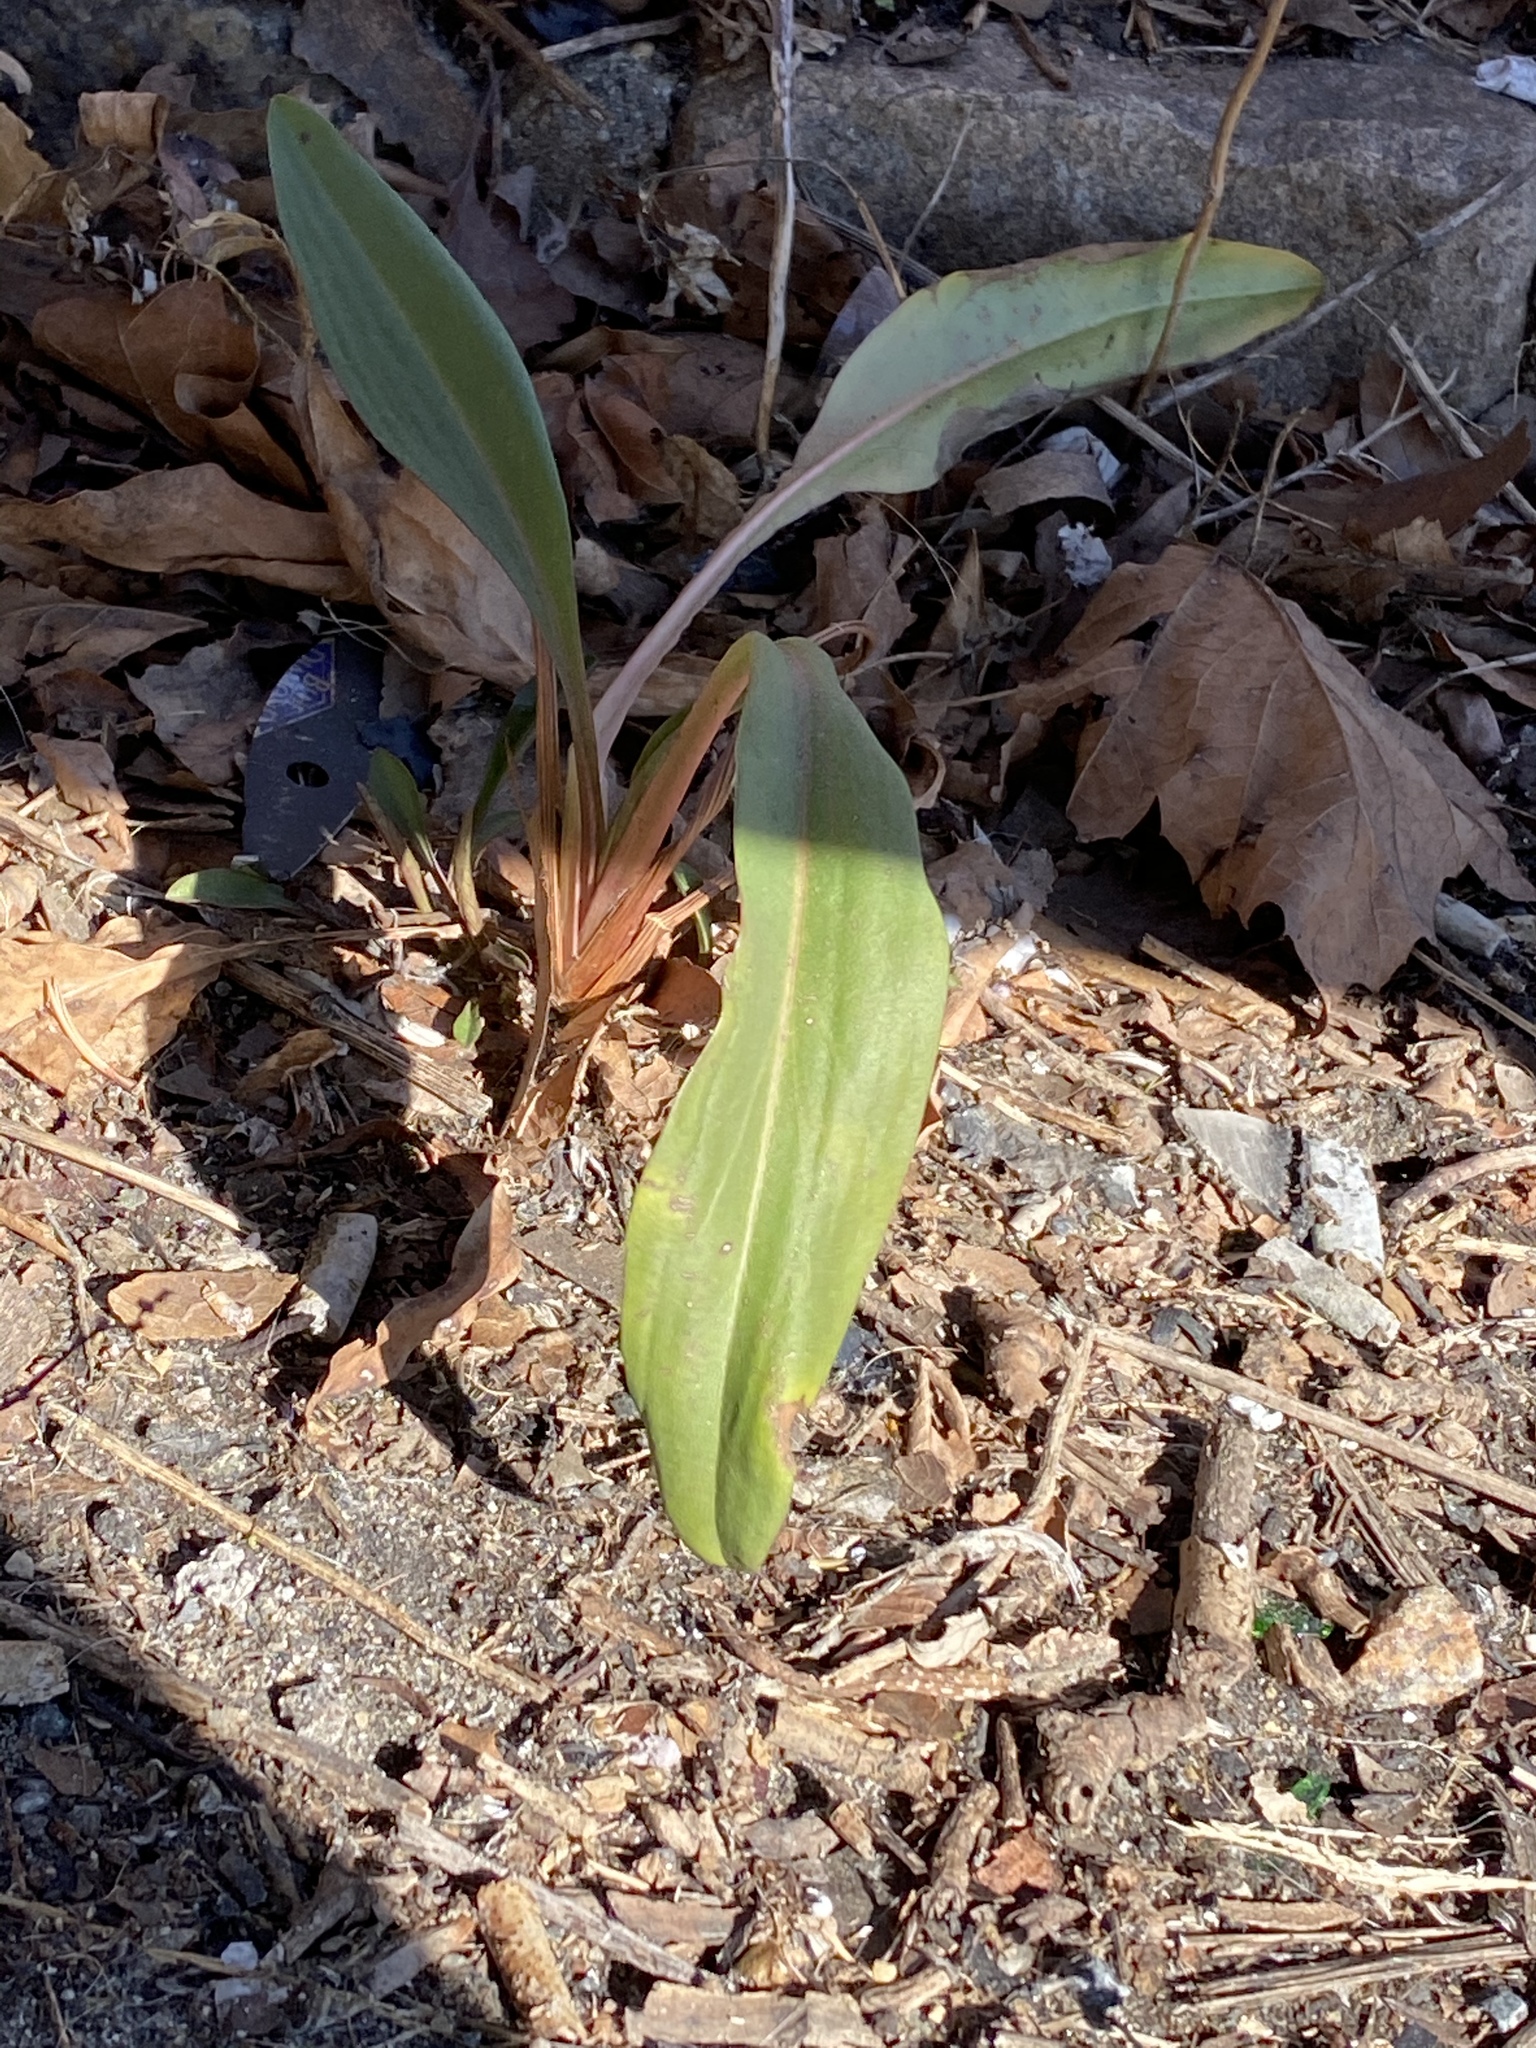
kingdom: Plantae
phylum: Tracheophyta
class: Magnoliopsida
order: Asterales
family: Asteraceae
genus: Solidago
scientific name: Solidago sempervirens
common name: Salt-marsh goldenrod
